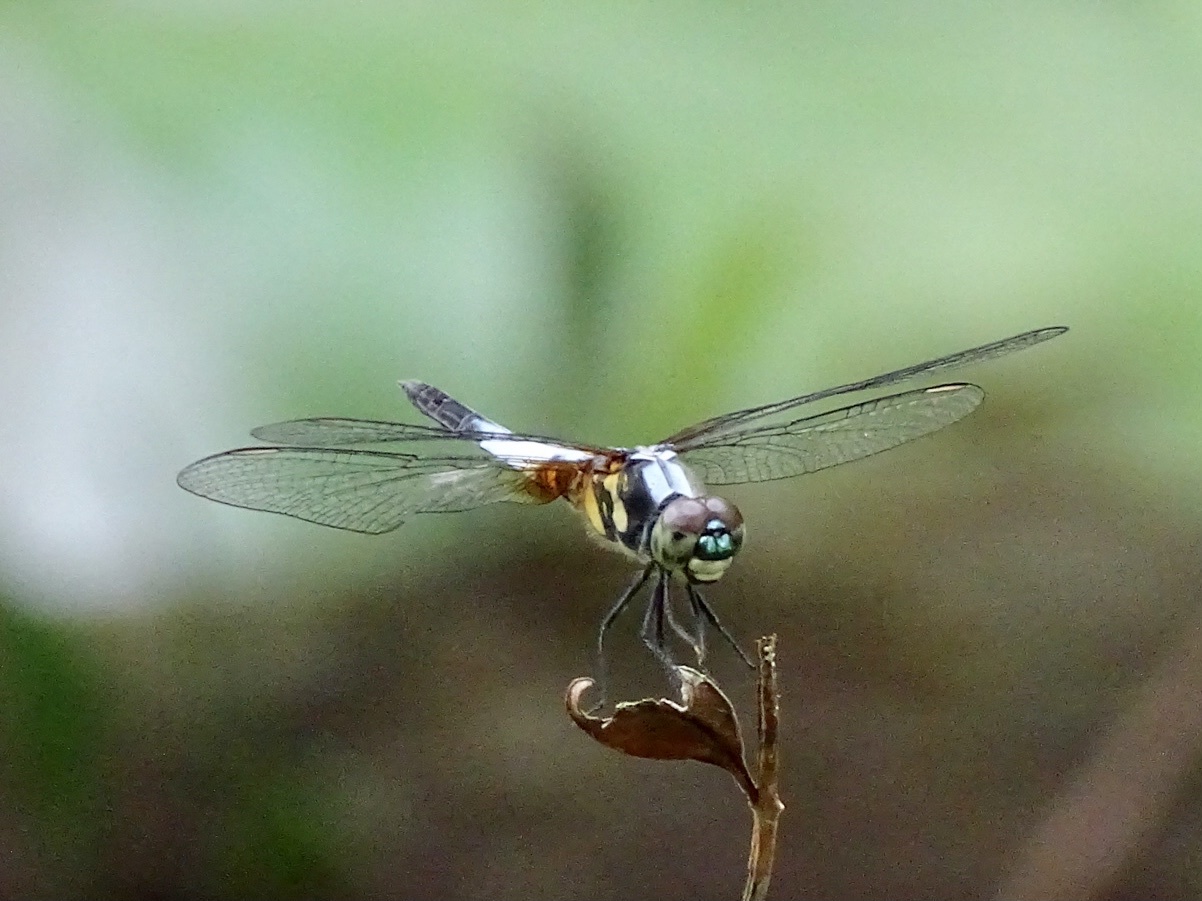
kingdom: Animalia
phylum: Arthropoda
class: Insecta
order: Odonata
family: Libellulidae
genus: Brachydiplax
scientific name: Brachydiplax chalybea
